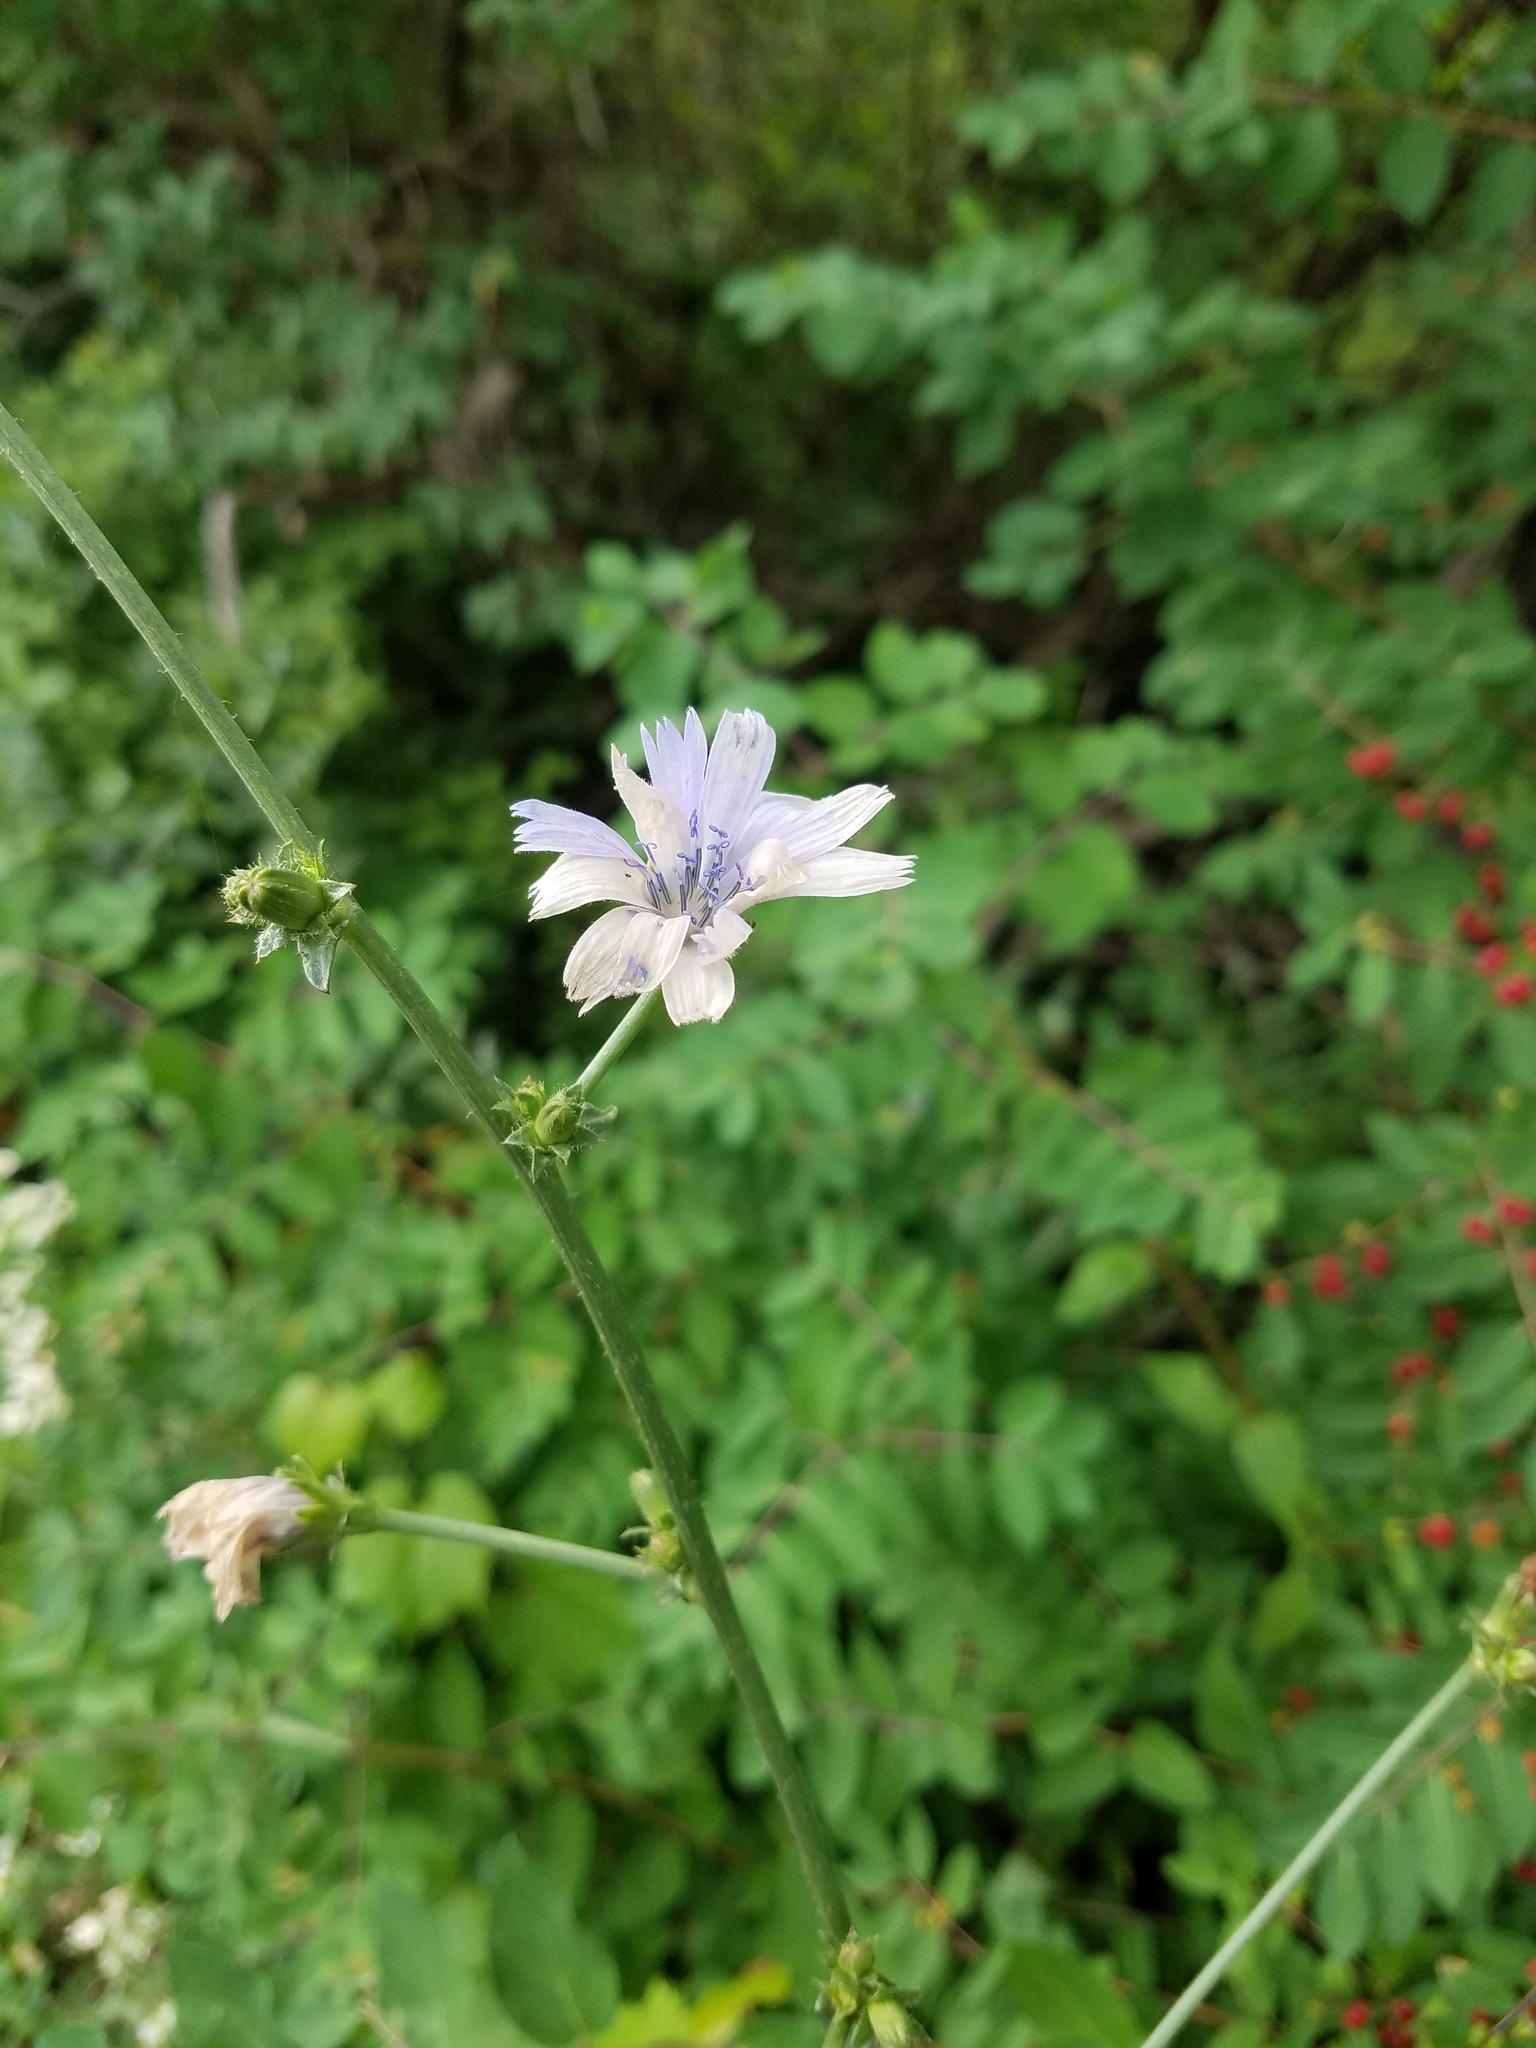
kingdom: Plantae
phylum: Tracheophyta
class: Magnoliopsida
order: Asterales
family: Asteraceae
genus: Cichorium
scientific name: Cichorium intybus
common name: Chicory
